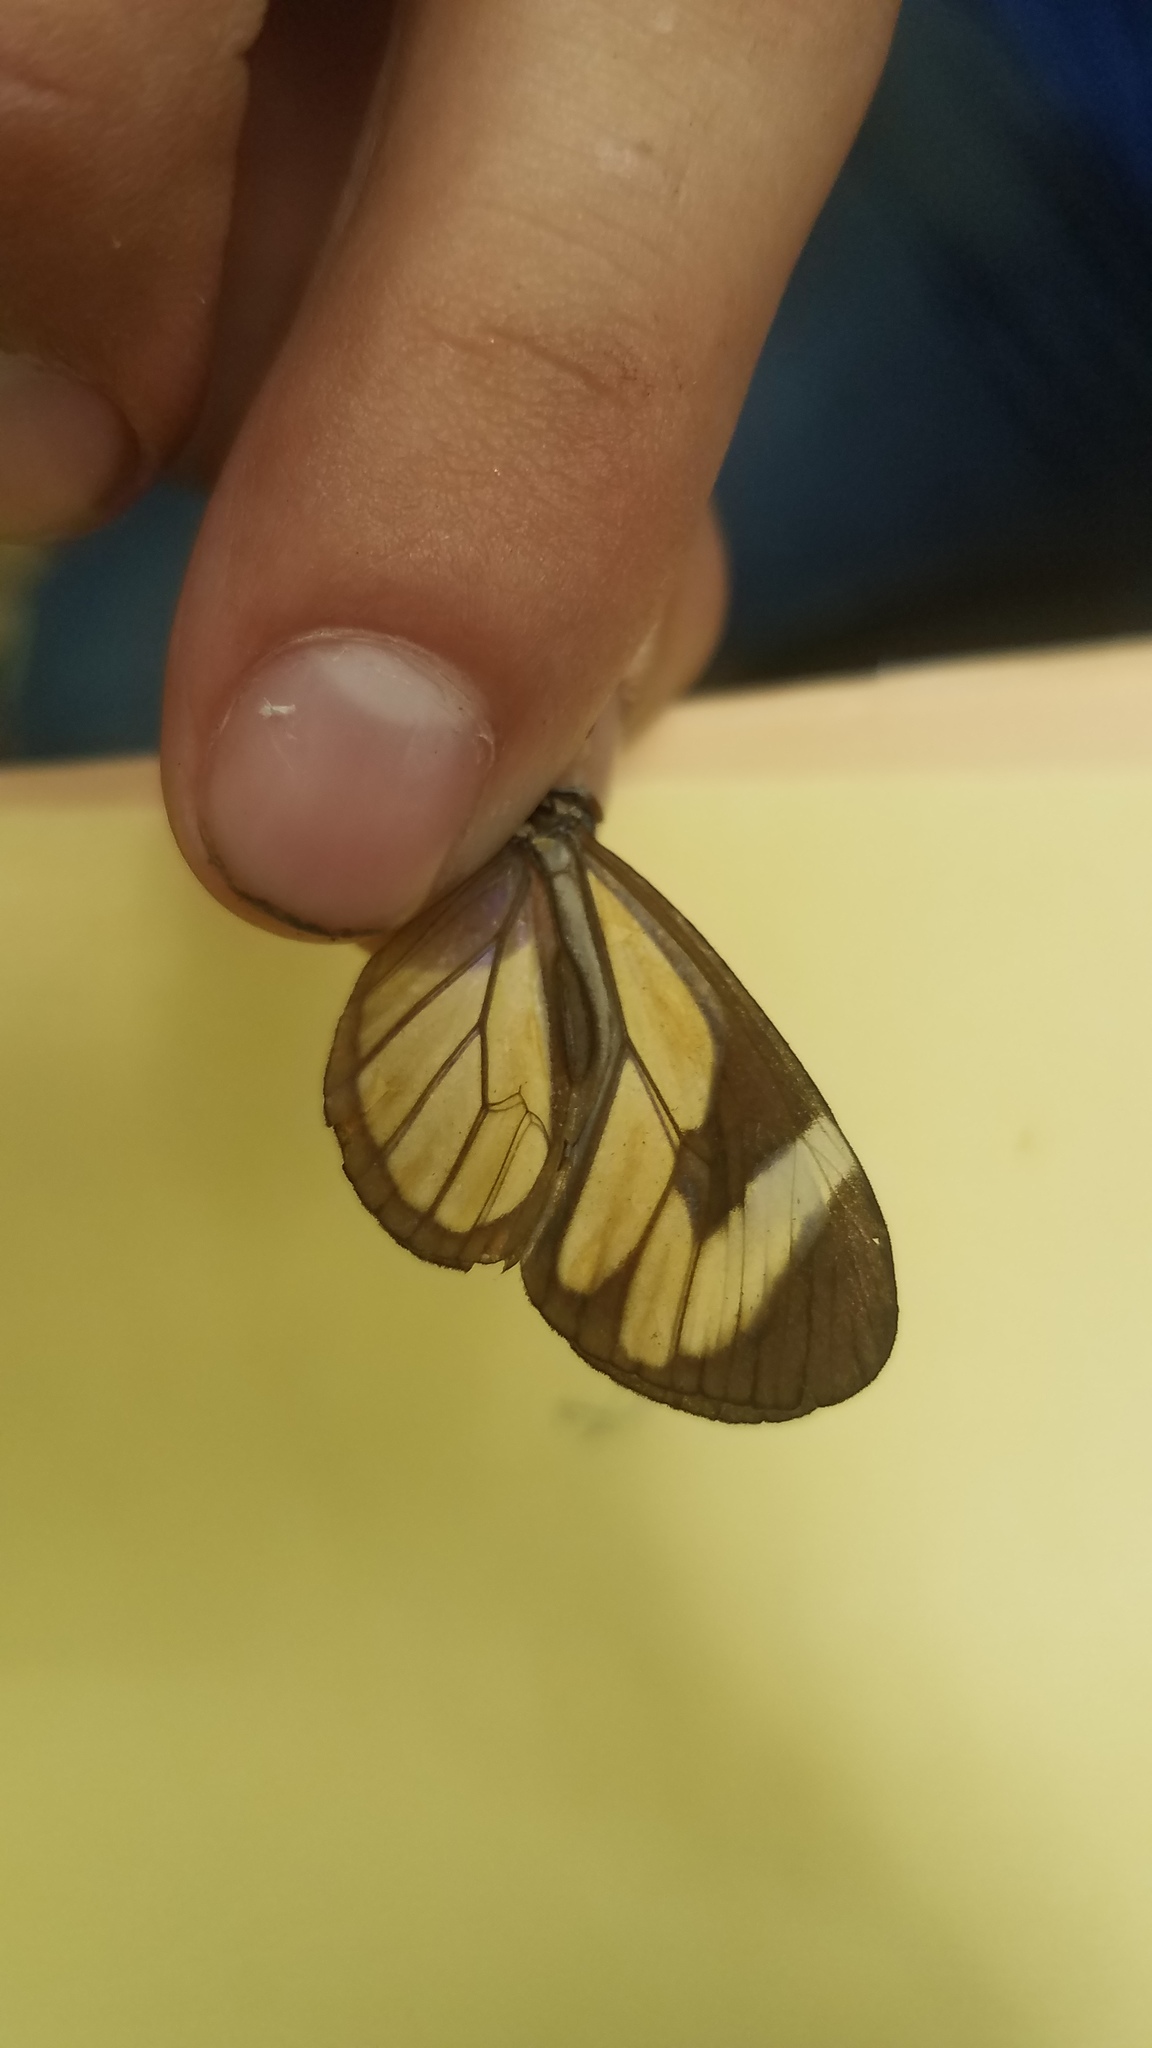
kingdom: Animalia
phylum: Arthropoda
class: Insecta
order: Lepidoptera
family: Nymphalidae
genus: Ithomia
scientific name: Ithomia patilla
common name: Patilla clearwing
